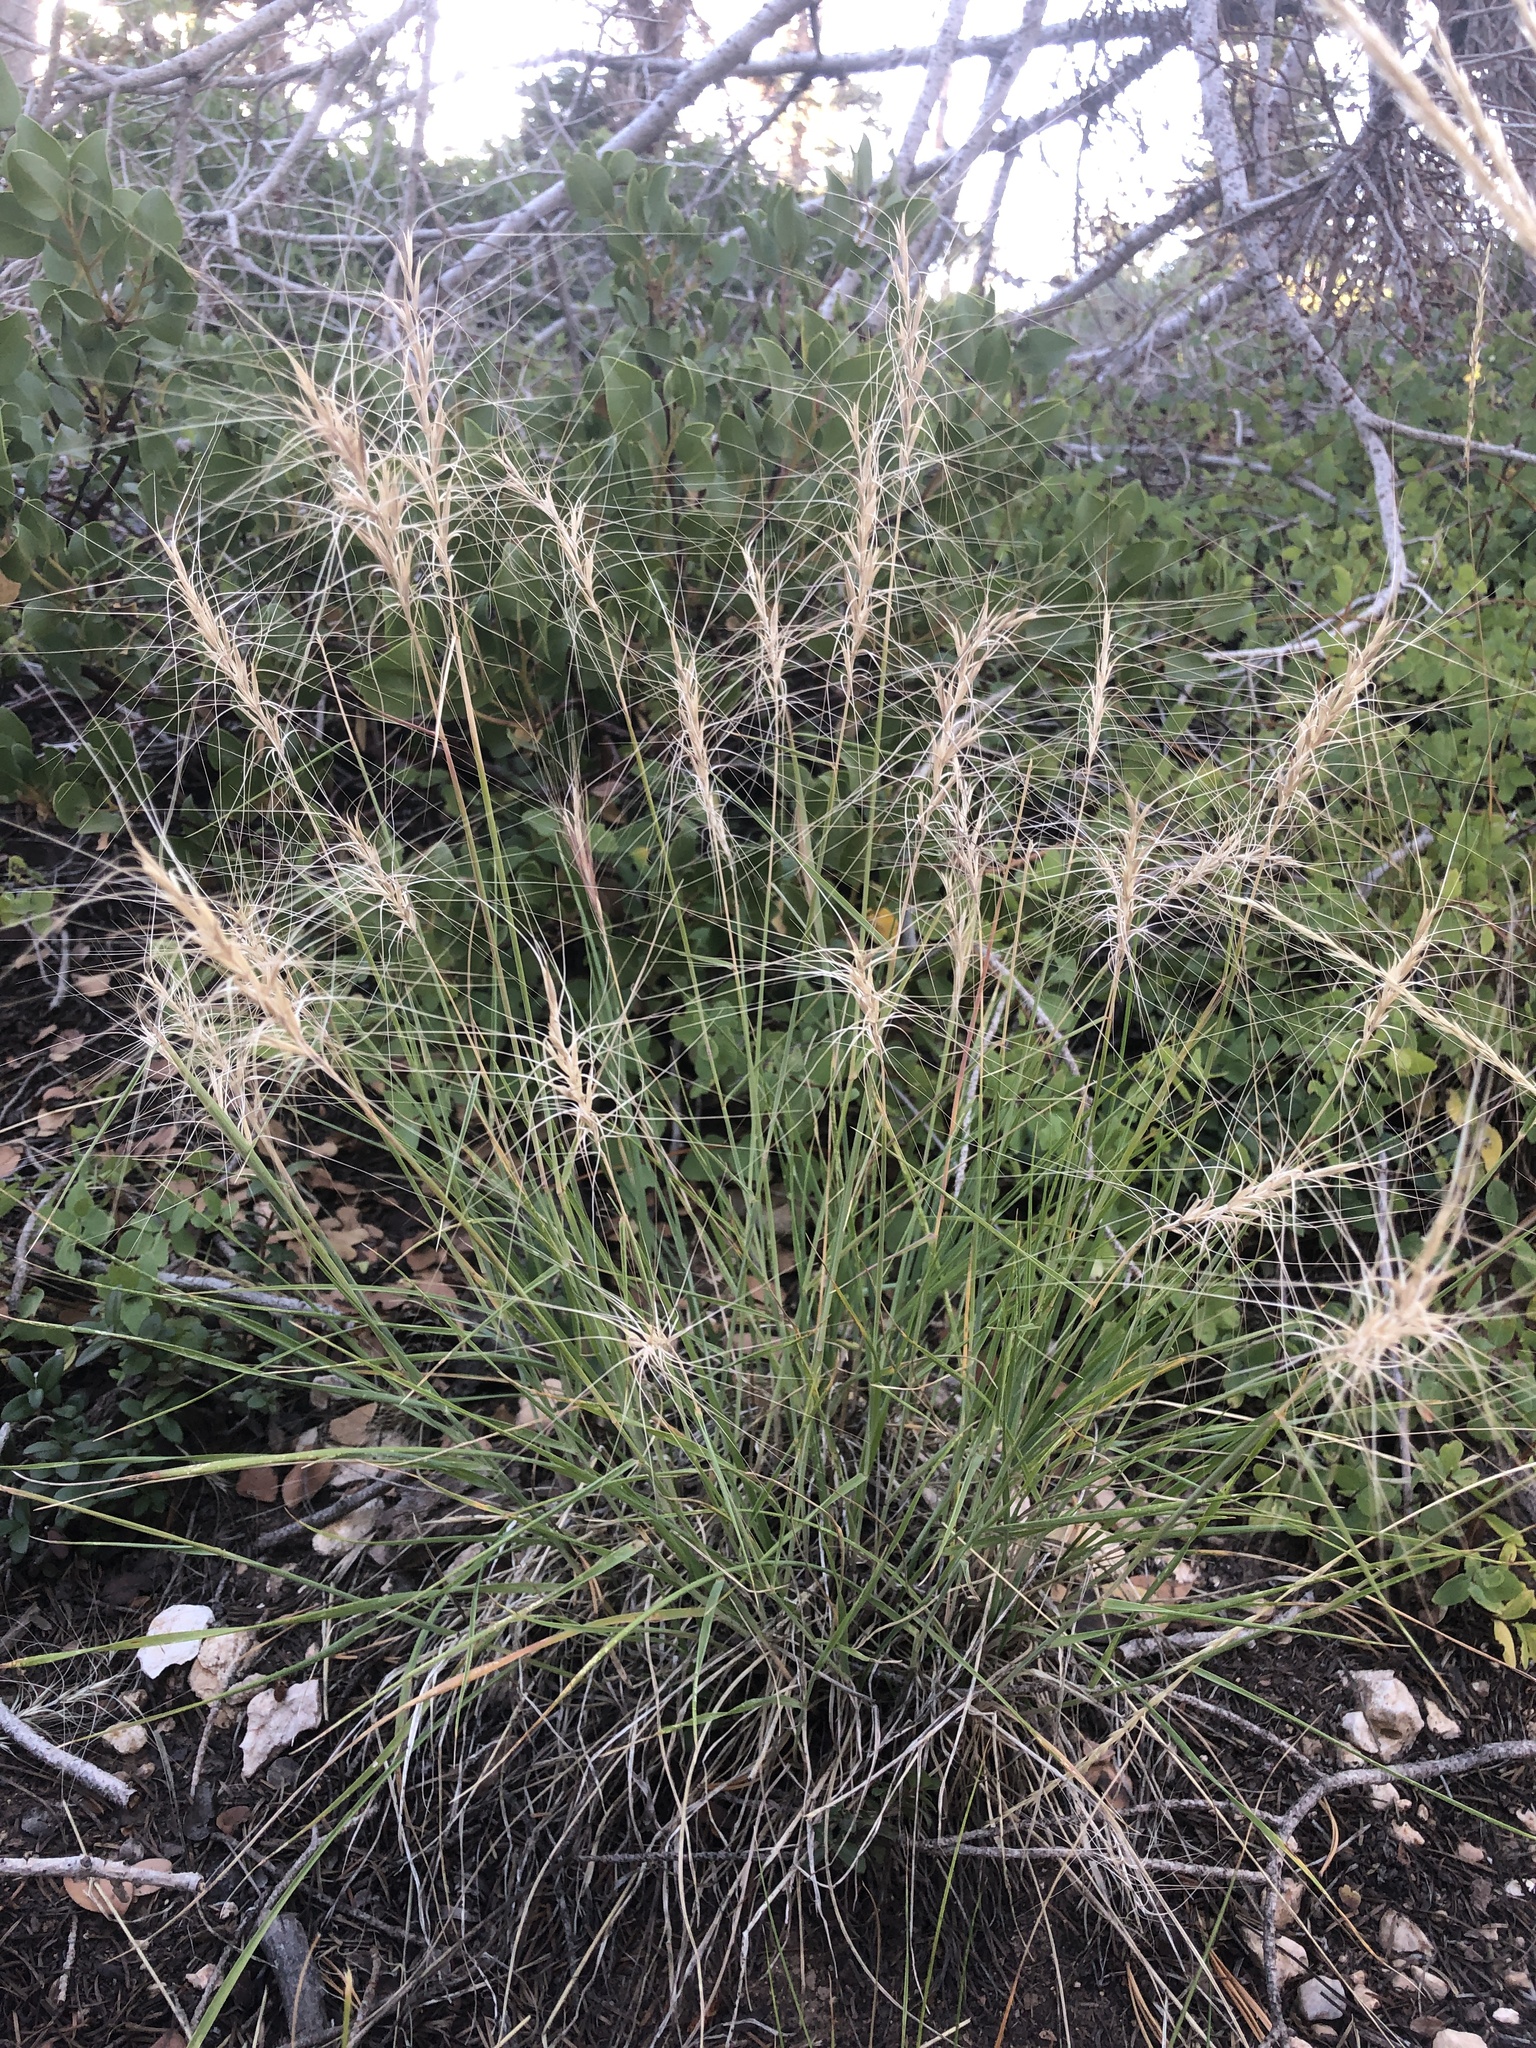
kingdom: Plantae
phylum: Tracheophyta
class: Liliopsida
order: Poales
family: Poaceae
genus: Elymus
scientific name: Elymus elymoides
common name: Bottlebrush squirreltail
